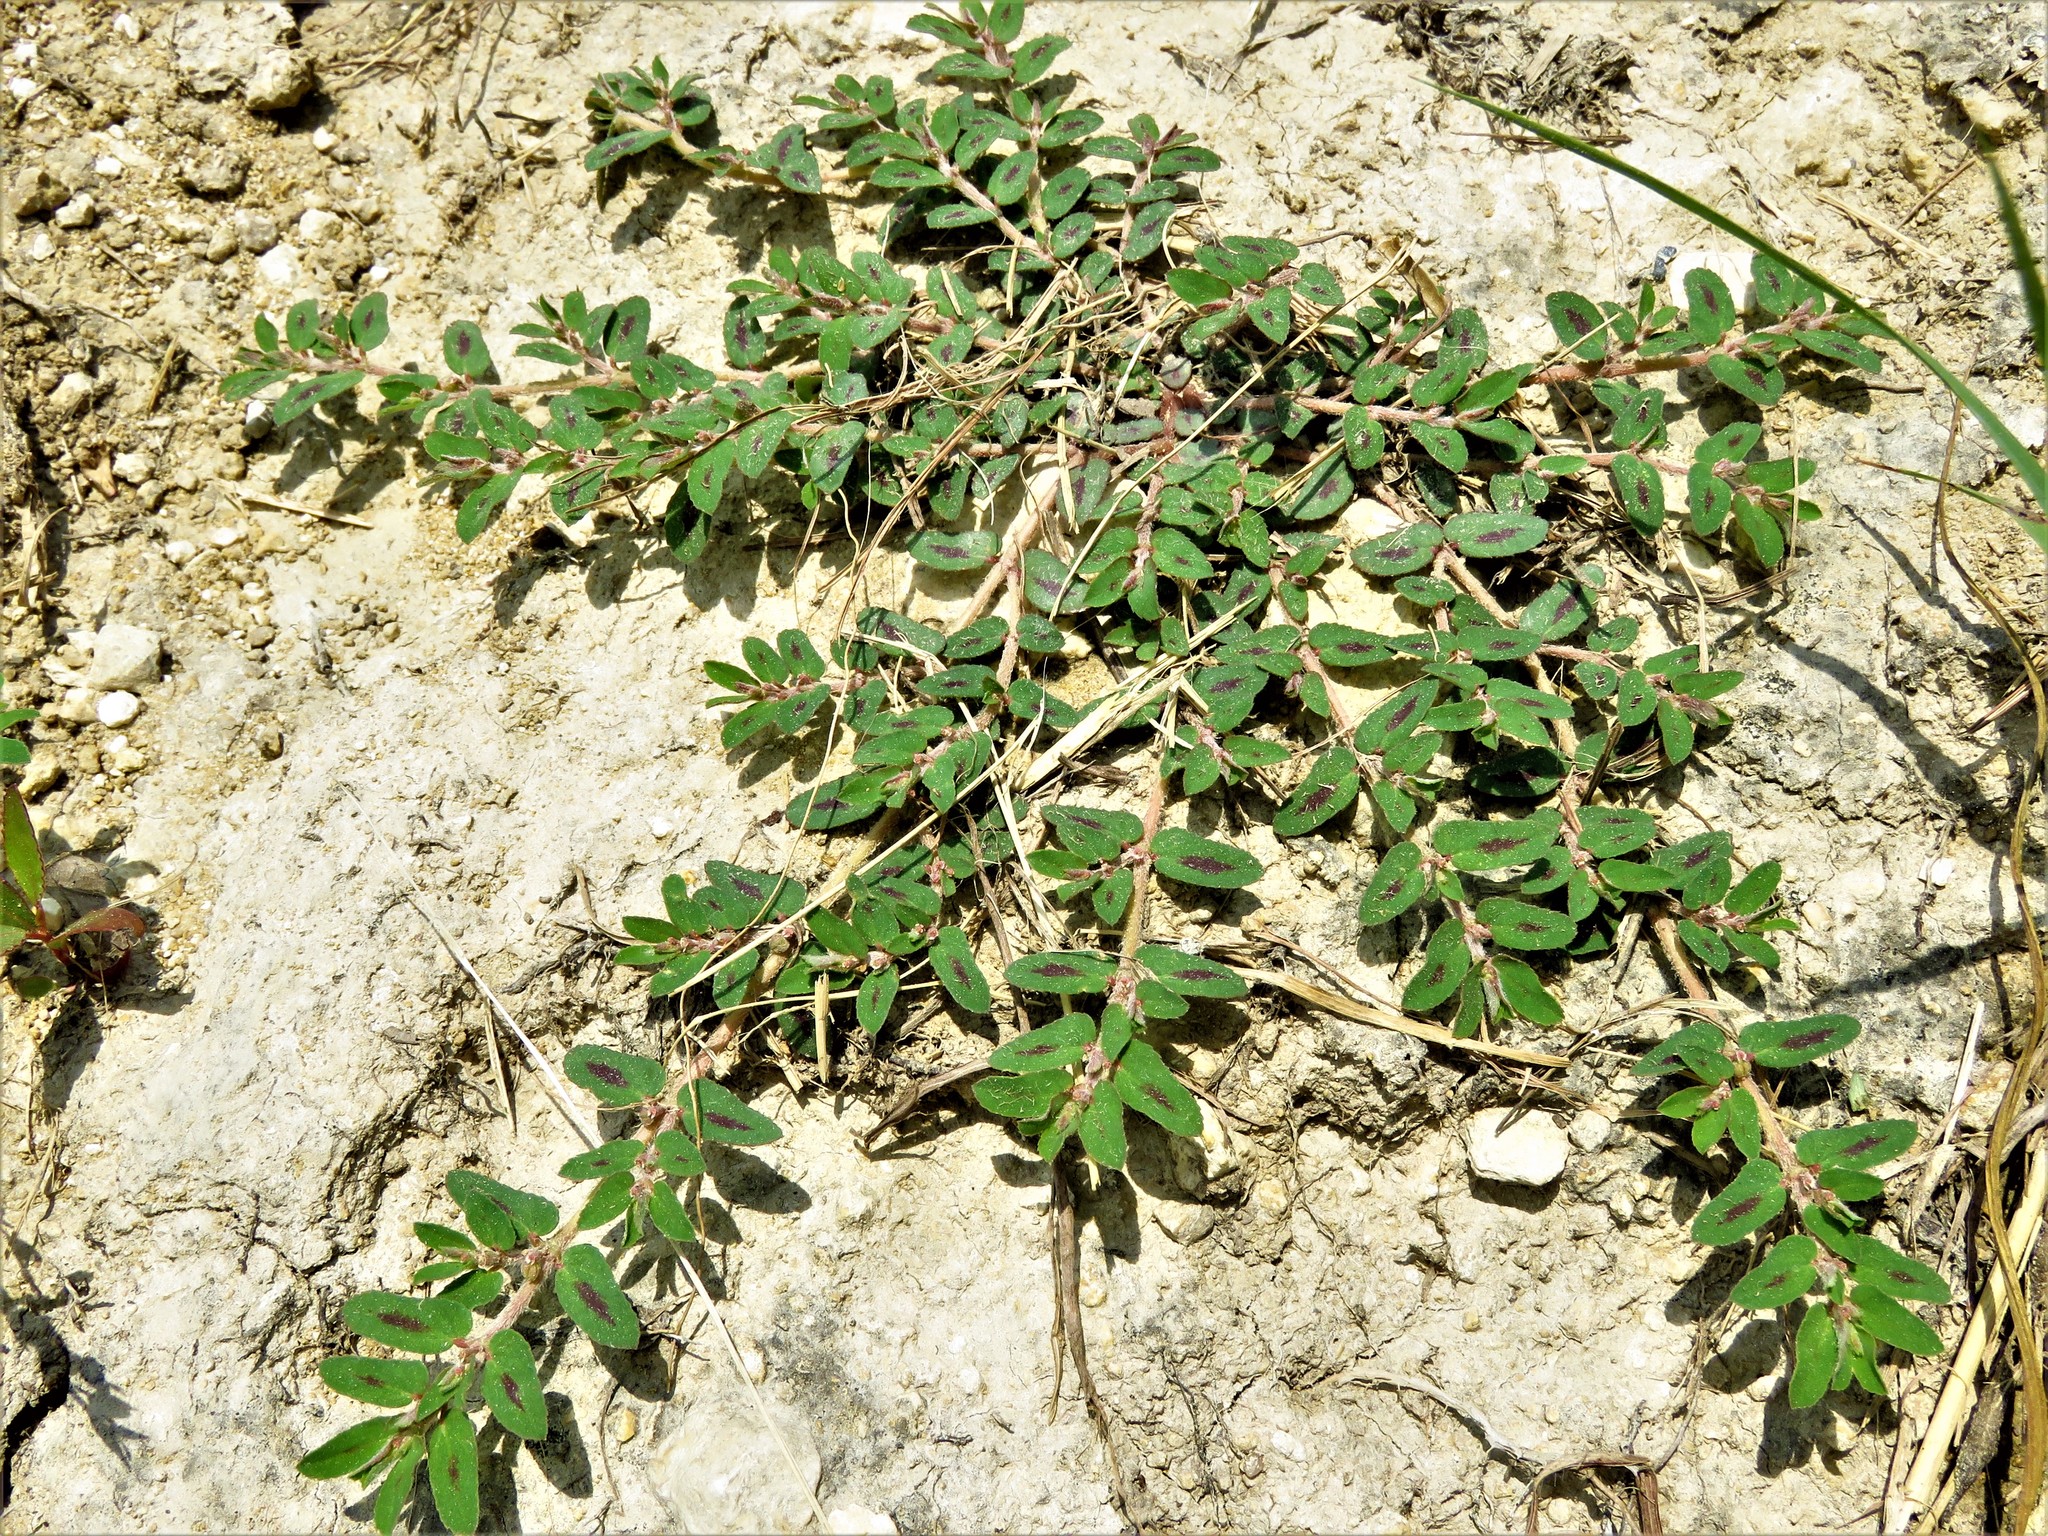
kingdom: Plantae
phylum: Tracheophyta
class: Magnoliopsida
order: Malpighiales
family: Euphorbiaceae
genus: Euphorbia
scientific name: Euphorbia maculata
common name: Spotted spurge
